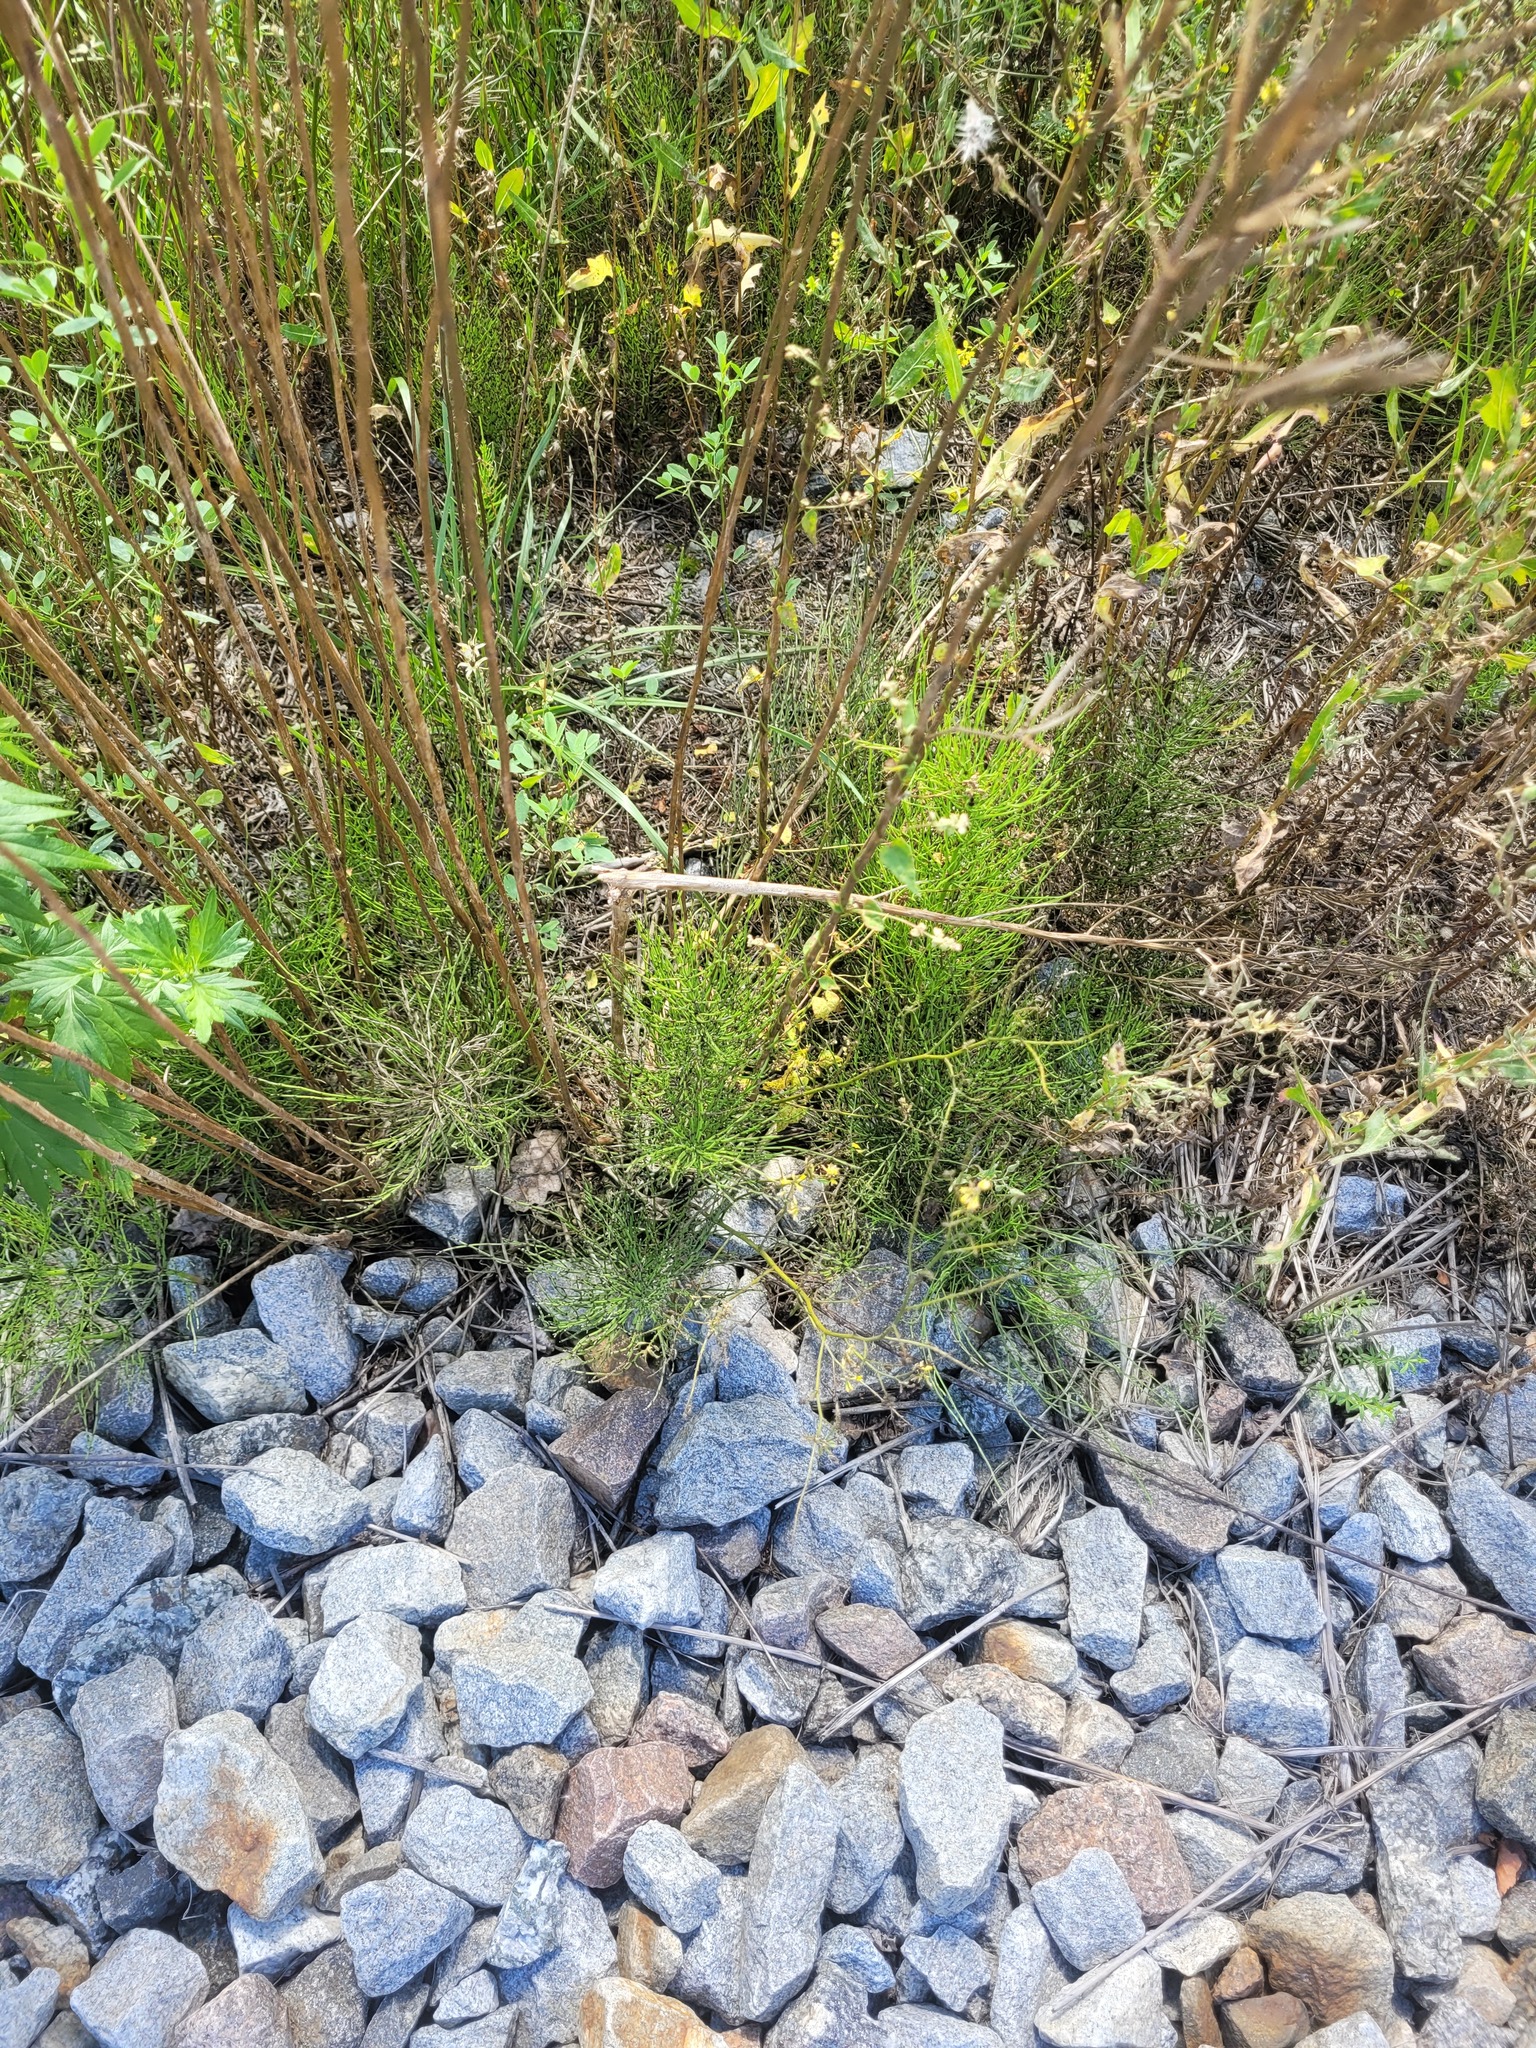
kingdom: Plantae
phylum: Tracheophyta
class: Polypodiopsida
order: Equisetales
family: Equisetaceae
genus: Equisetum
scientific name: Equisetum arvense
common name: Field horsetail
